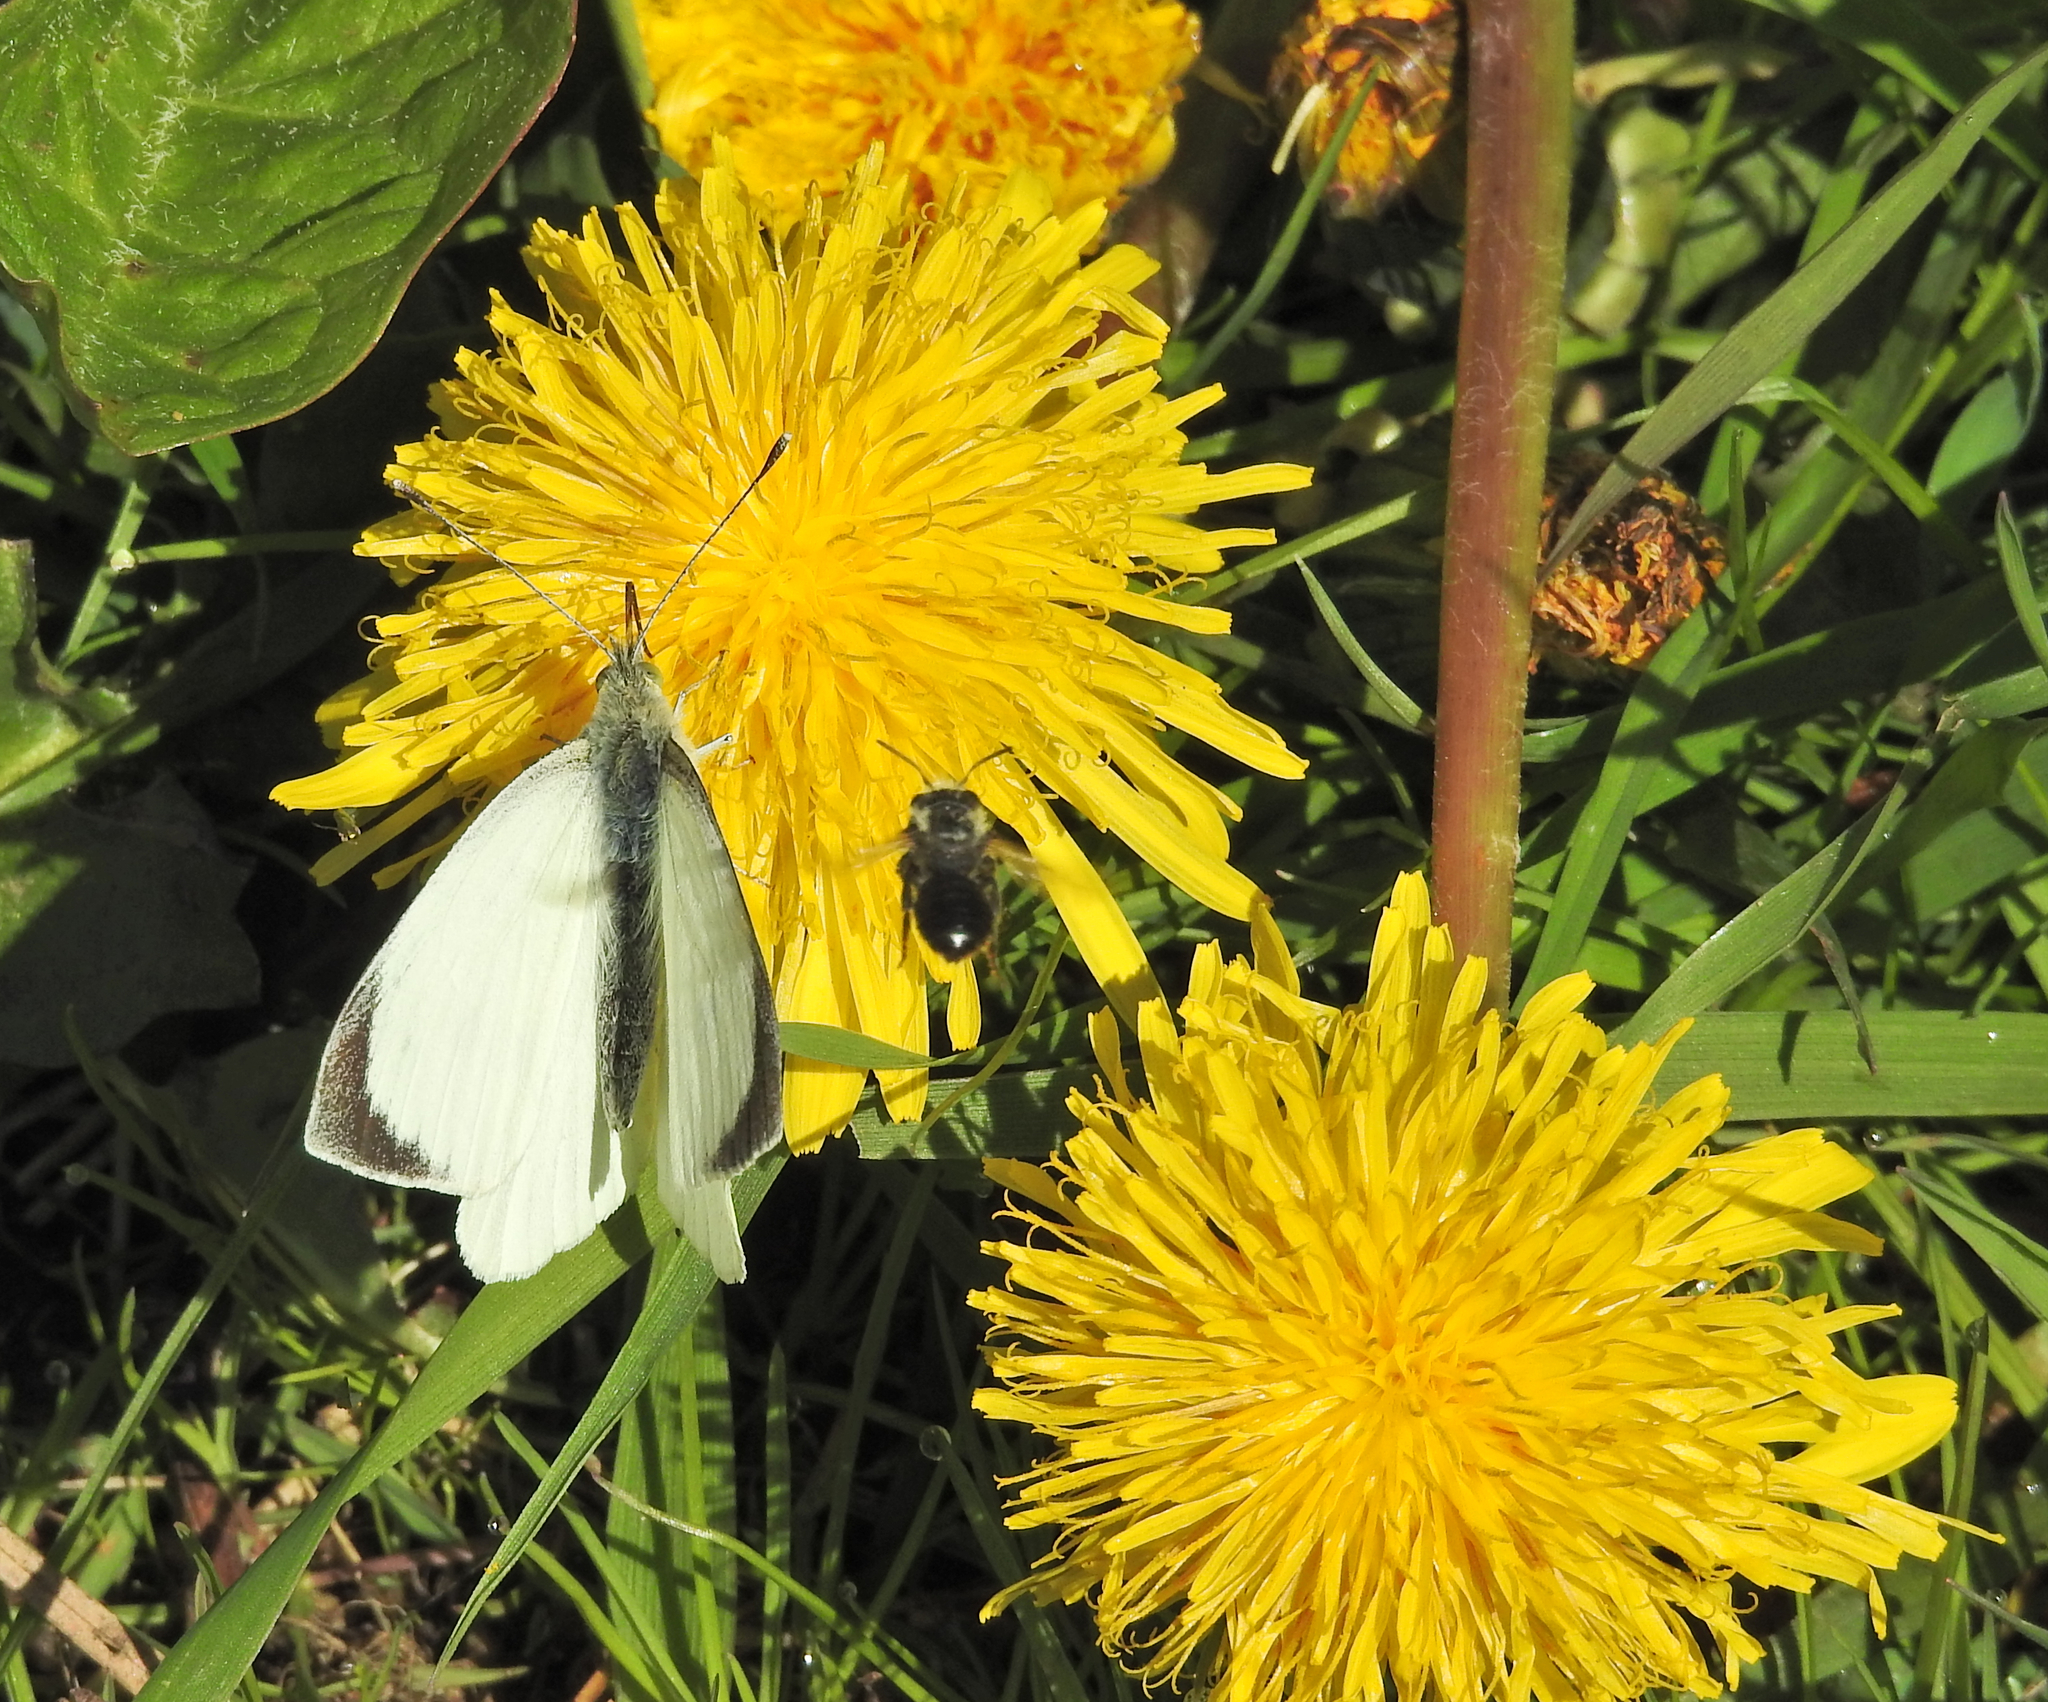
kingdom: Animalia
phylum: Arthropoda
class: Insecta
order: Lepidoptera
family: Pieridae
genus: Pieris
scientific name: Pieris brassicae
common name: Large white
